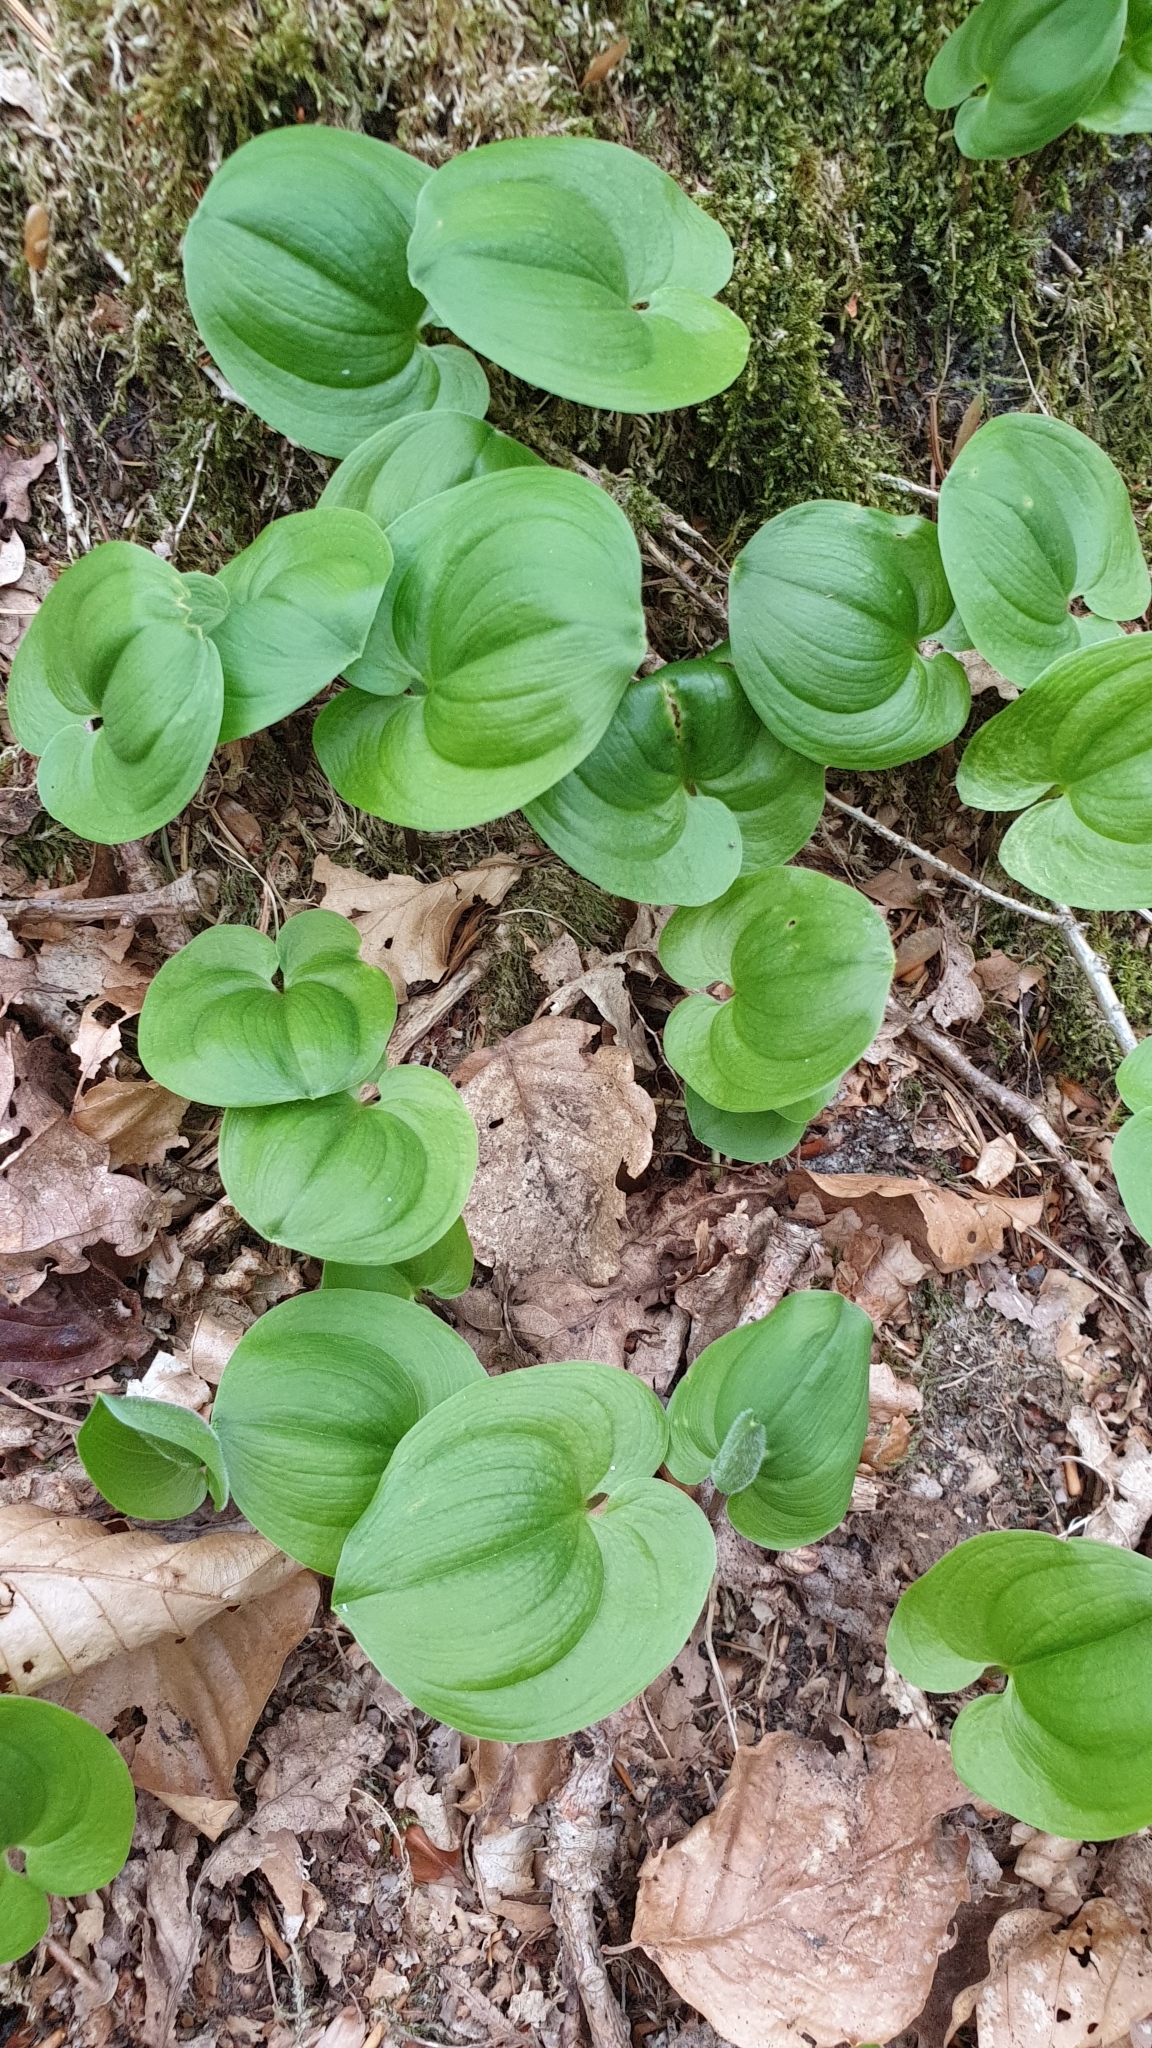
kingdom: Plantae
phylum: Tracheophyta
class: Liliopsida
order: Asparagales
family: Asparagaceae
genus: Maianthemum
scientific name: Maianthemum bifolium
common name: May lily
